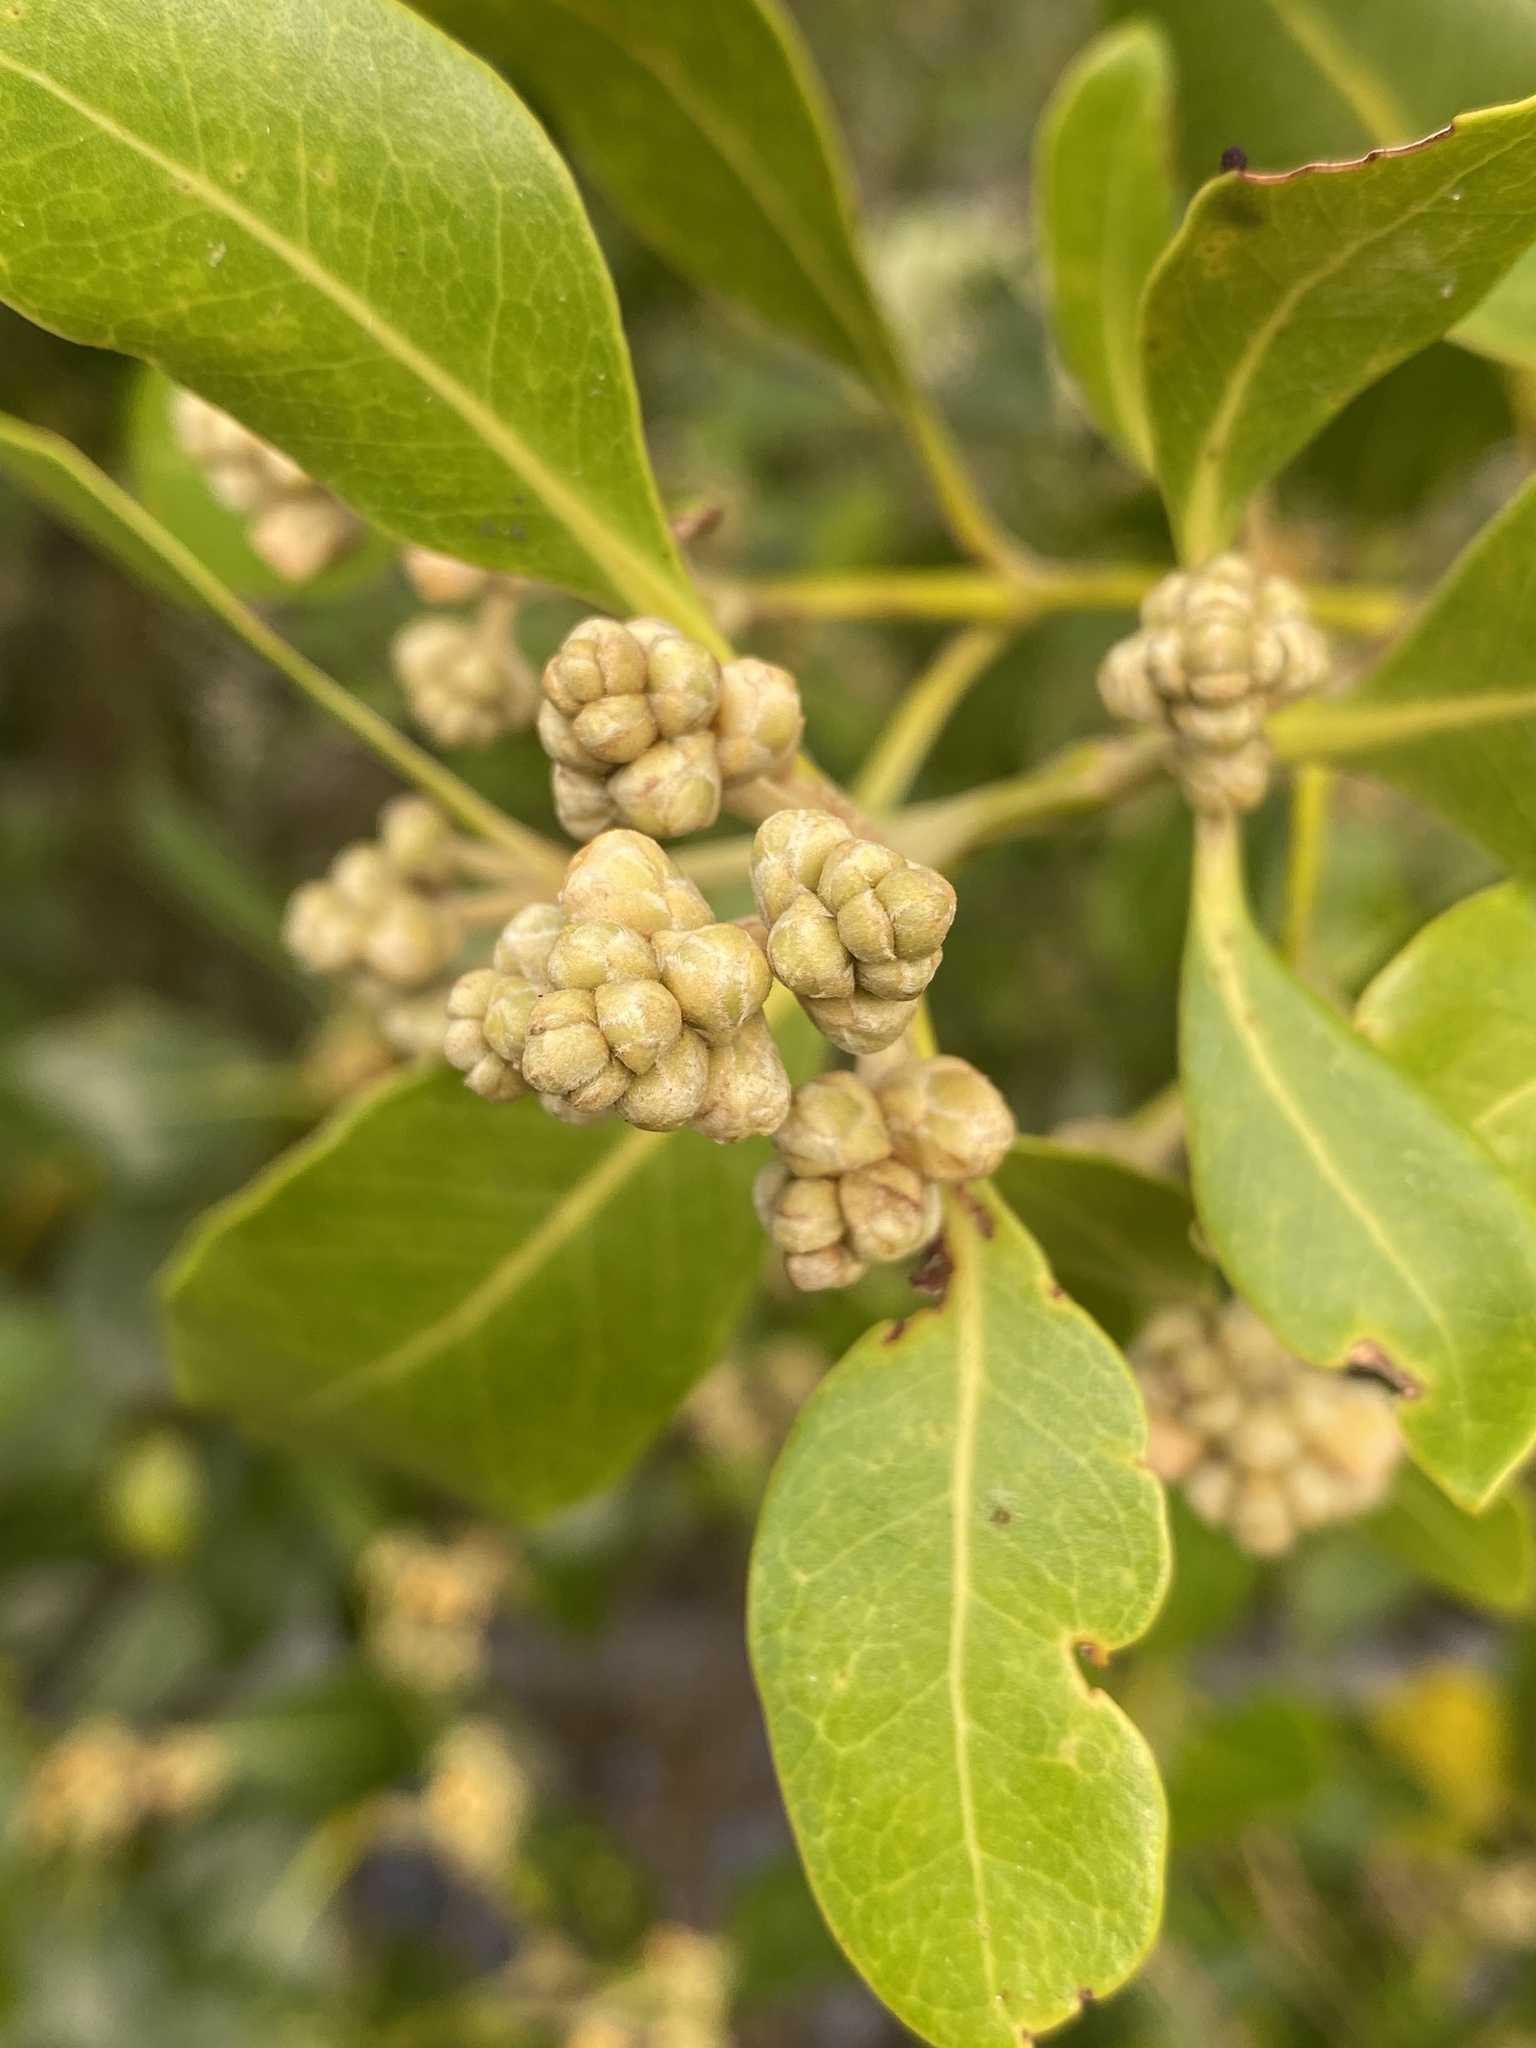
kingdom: Plantae
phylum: Tracheophyta
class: Magnoliopsida
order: Lamiales
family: Acanthaceae
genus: Avicennia
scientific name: Avicennia marina
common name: Gray mangrove
